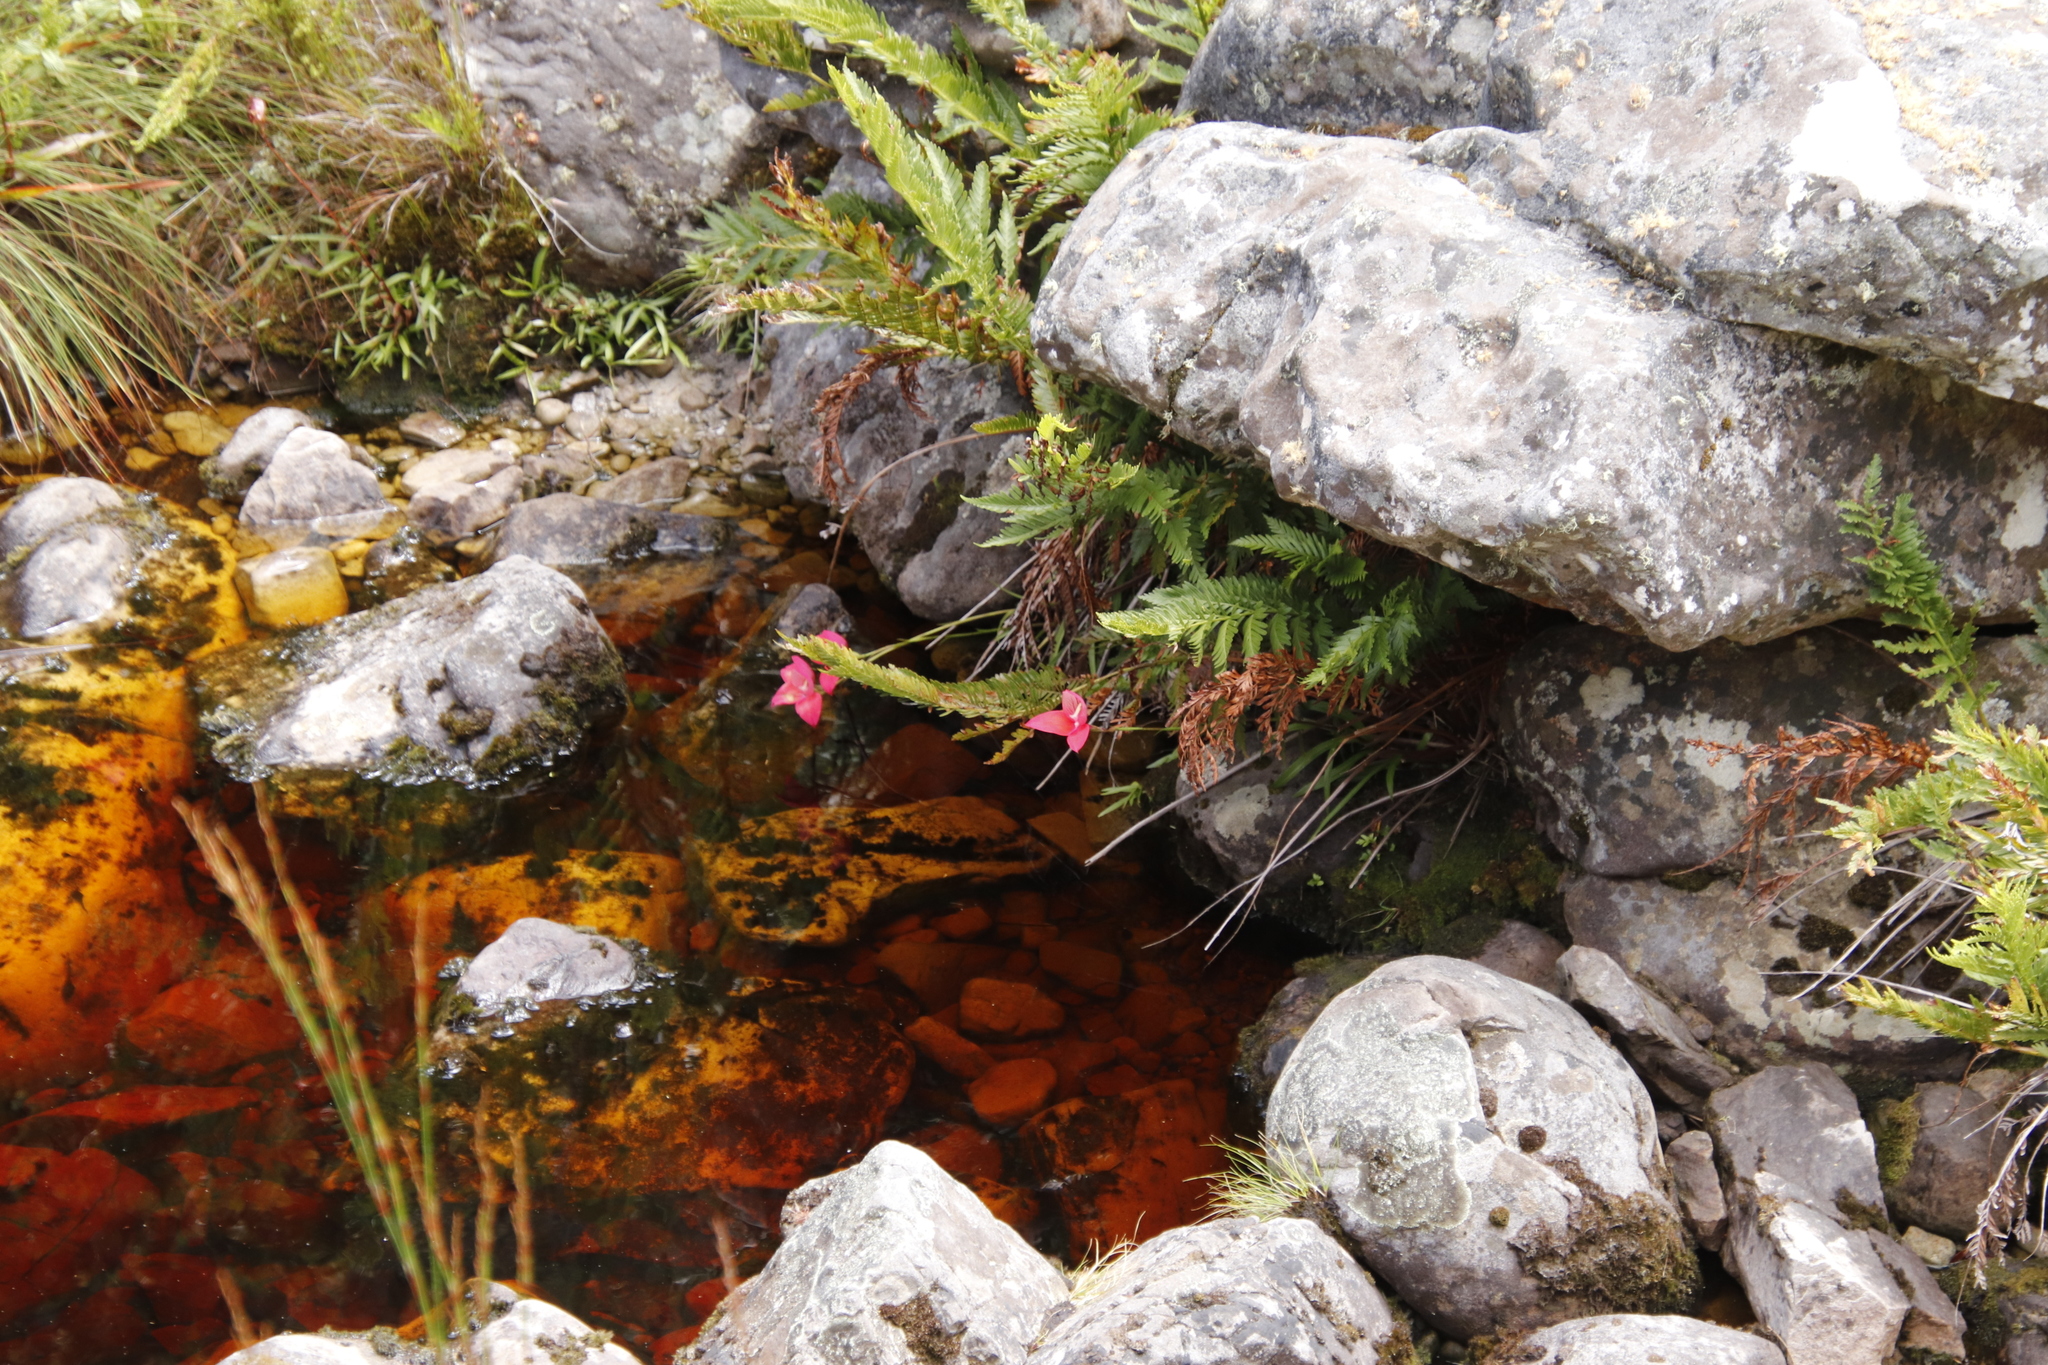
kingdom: Plantae
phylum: Tracheophyta
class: Liliopsida
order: Asparagales
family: Orchidaceae
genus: Disa
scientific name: Disa uniflora
